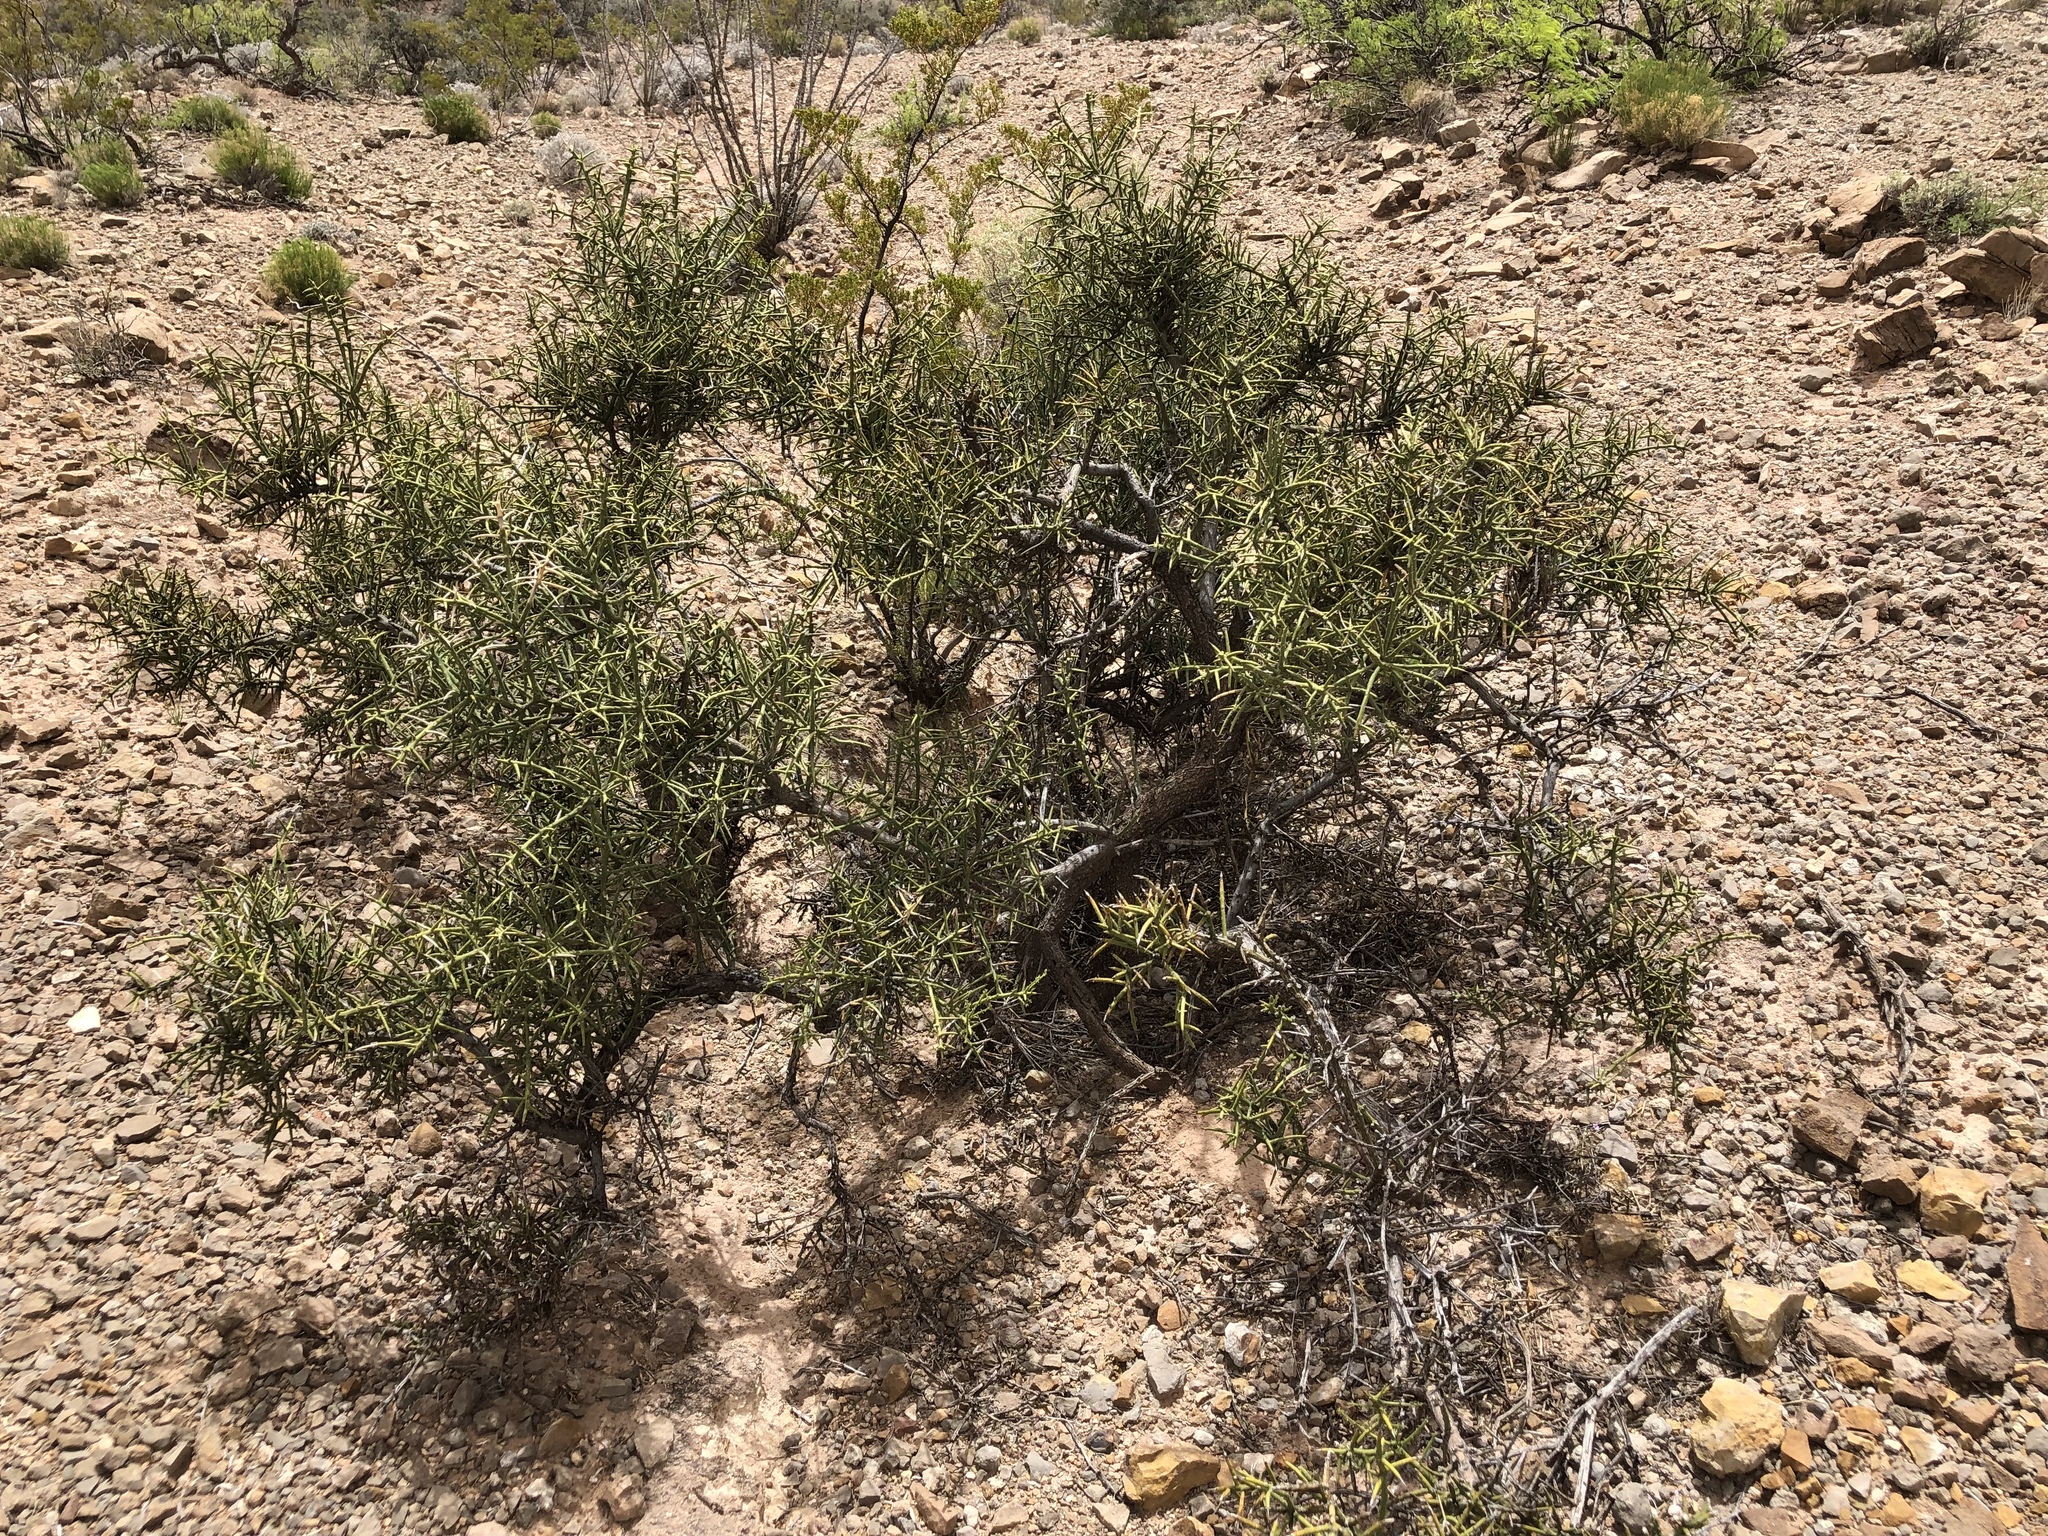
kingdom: Plantae
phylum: Tracheophyta
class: Magnoliopsida
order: Brassicales
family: Koeberliniaceae
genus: Koeberlinia
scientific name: Koeberlinia spinosa
